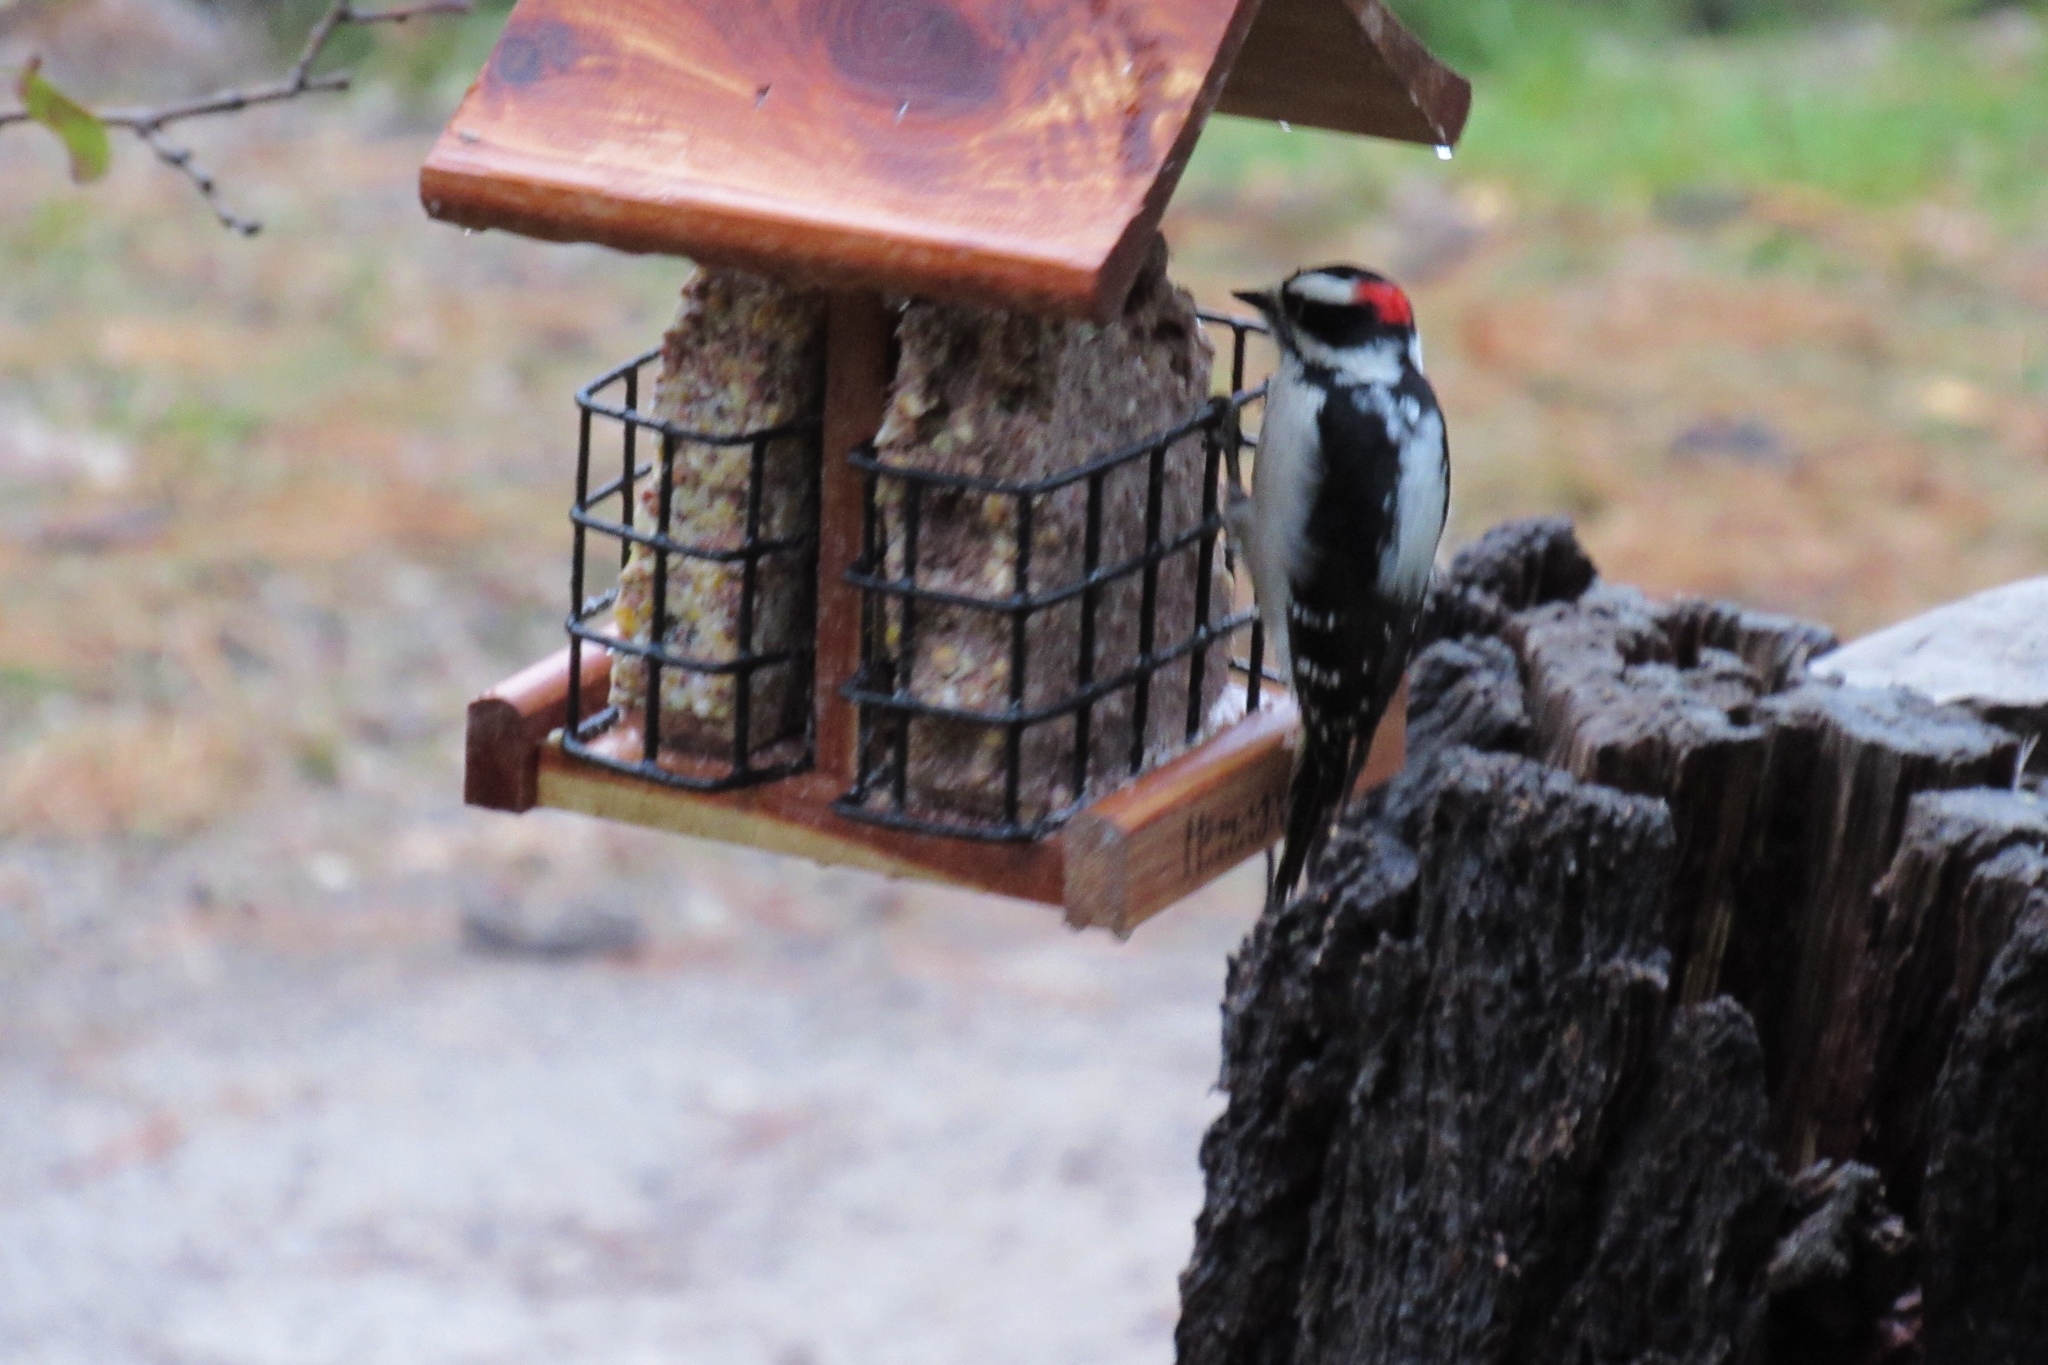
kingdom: Animalia
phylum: Chordata
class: Aves
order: Piciformes
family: Picidae
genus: Leuconotopicus
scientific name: Leuconotopicus villosus
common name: Hairy woodpecker
